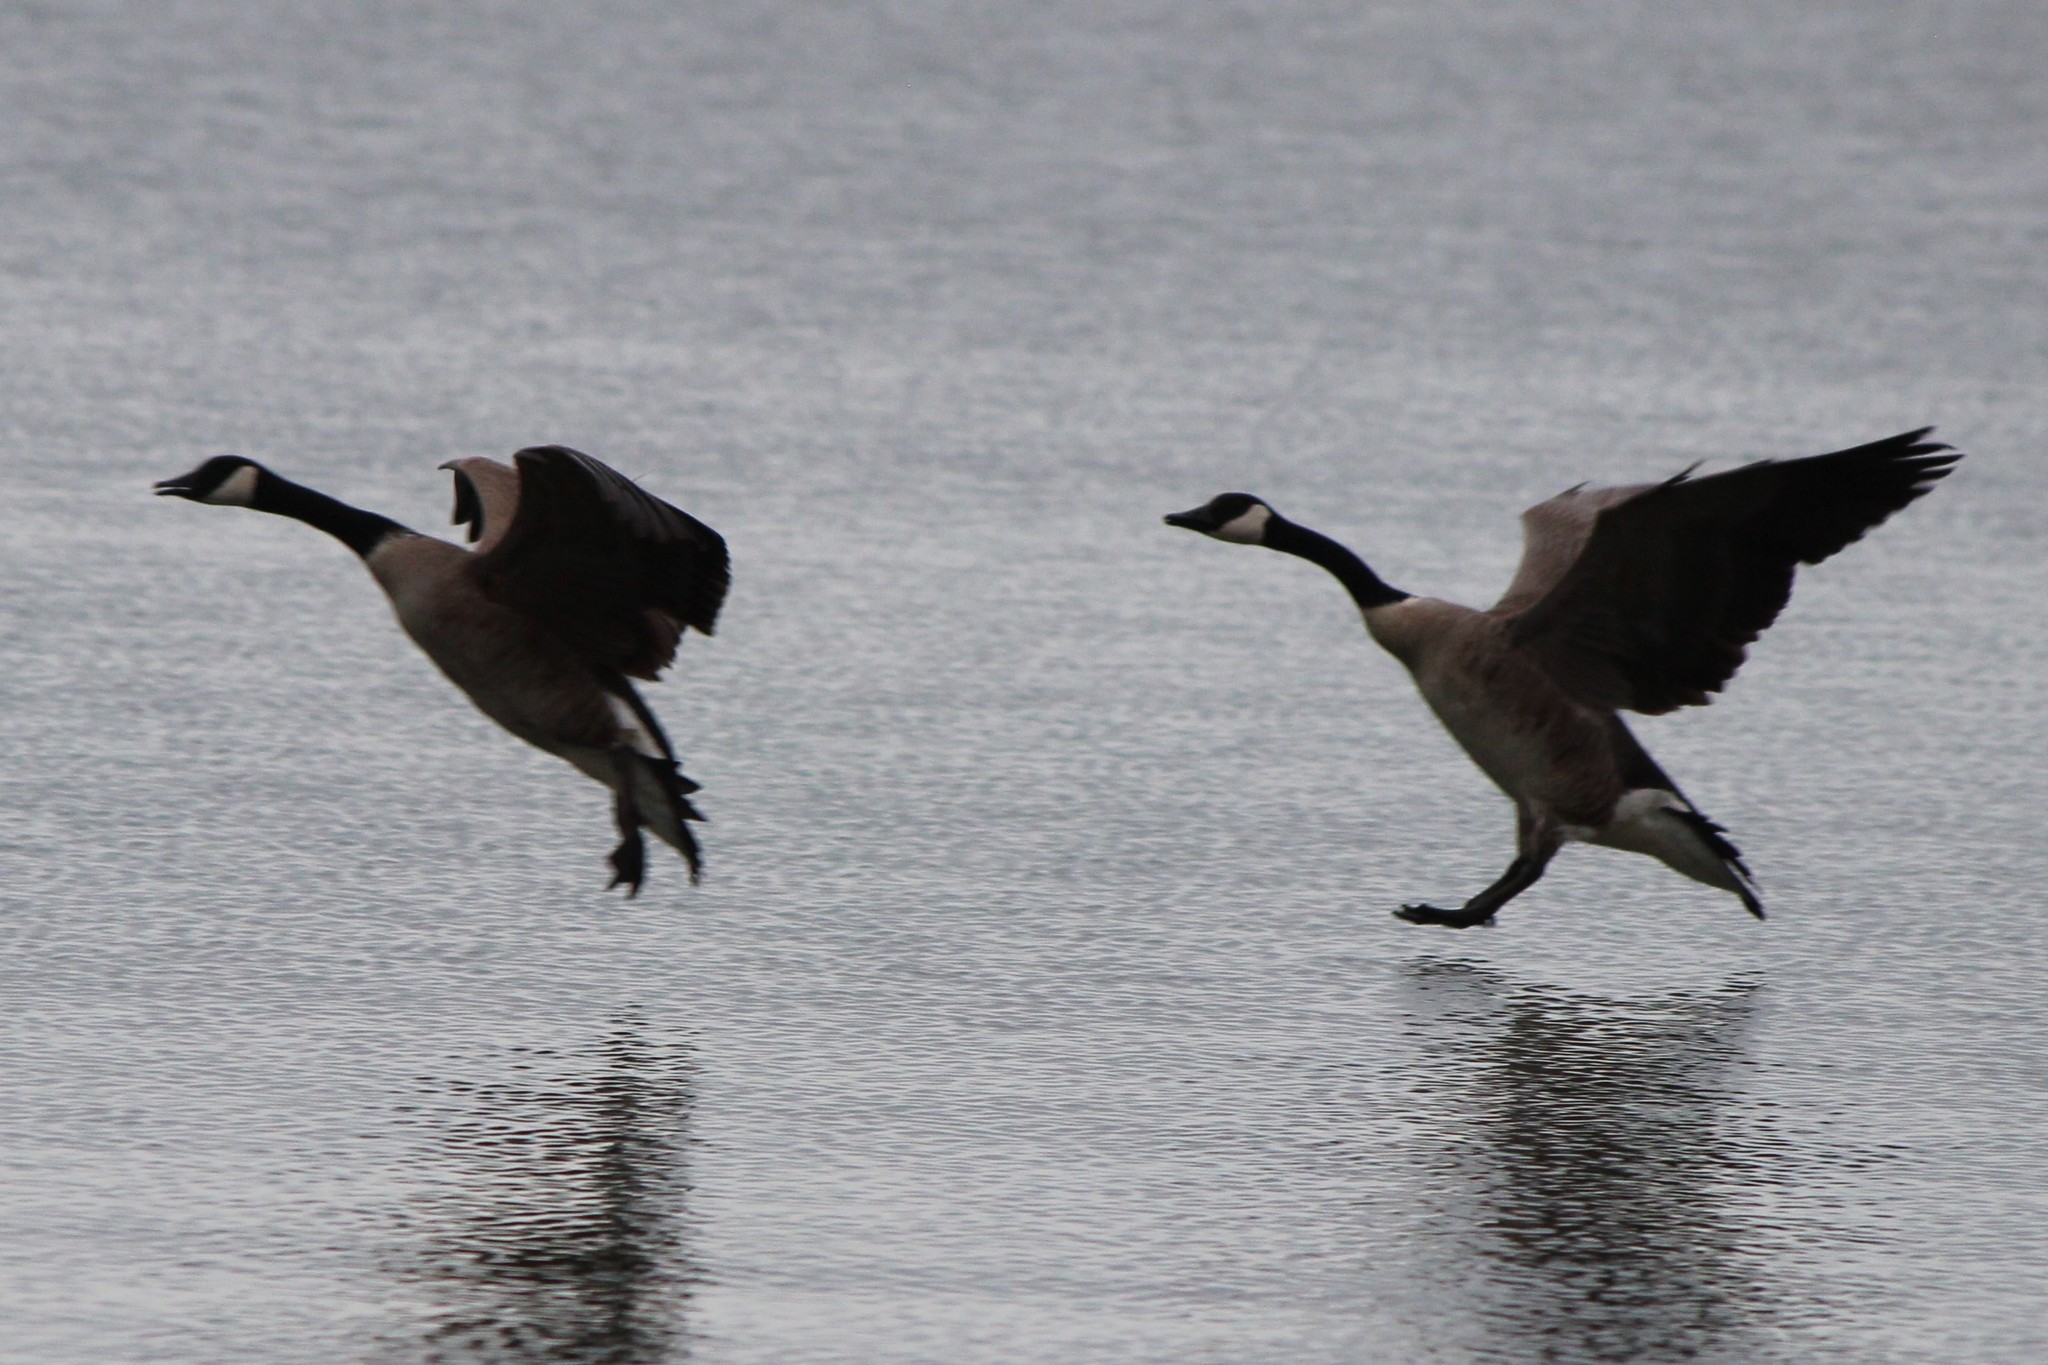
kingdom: Animalia
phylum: Chordata
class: Aves
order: Anseriformes
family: Anatidae
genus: Branta
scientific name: Branta canadensis
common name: Canada goose
